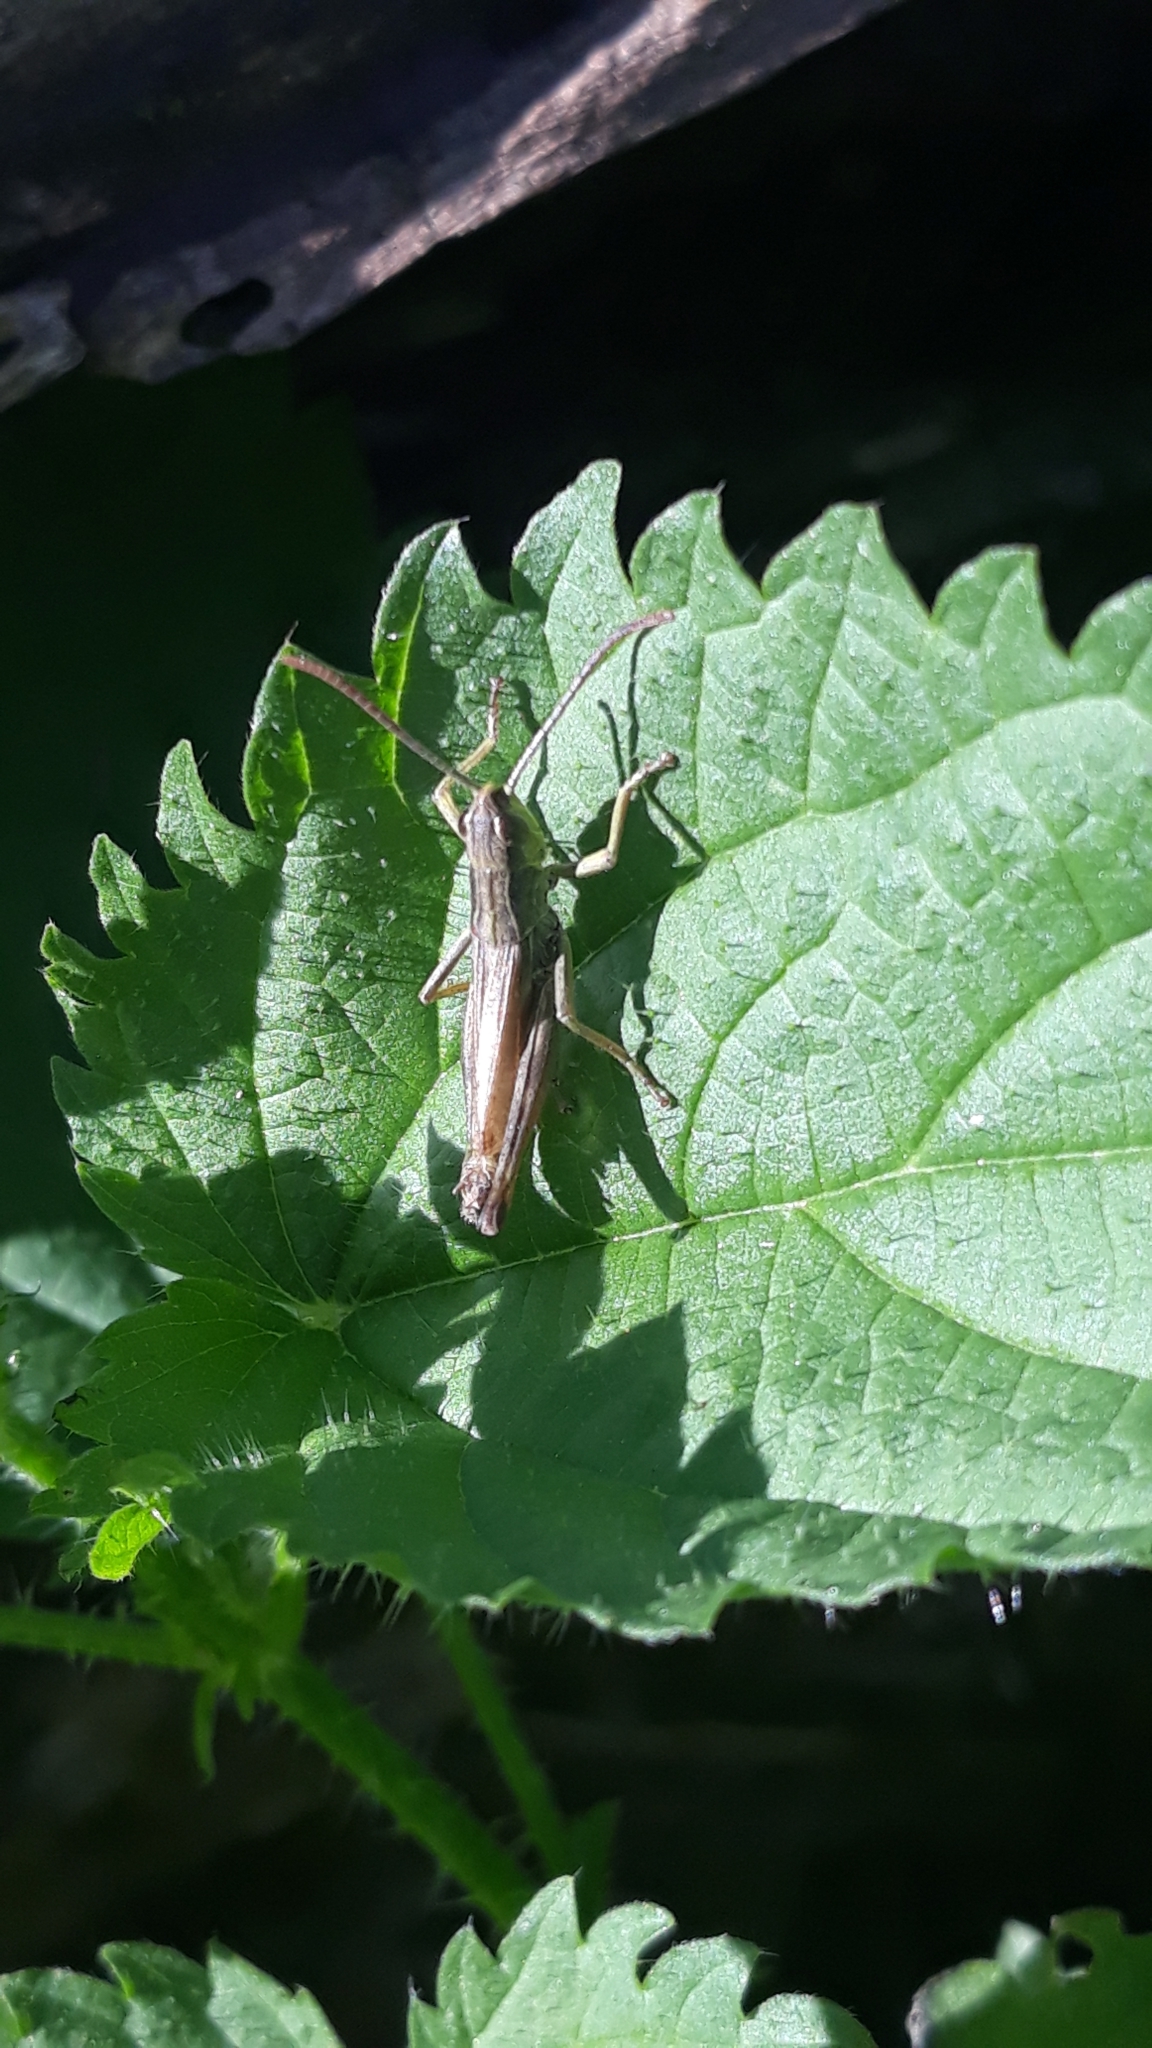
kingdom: Animalia
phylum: Arthropoda
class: Insecta
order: Orthoptera
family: Acrididae
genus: Pseudochorthippus
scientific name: Pseudochorthippus parallelus
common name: Meadow grasshopper
